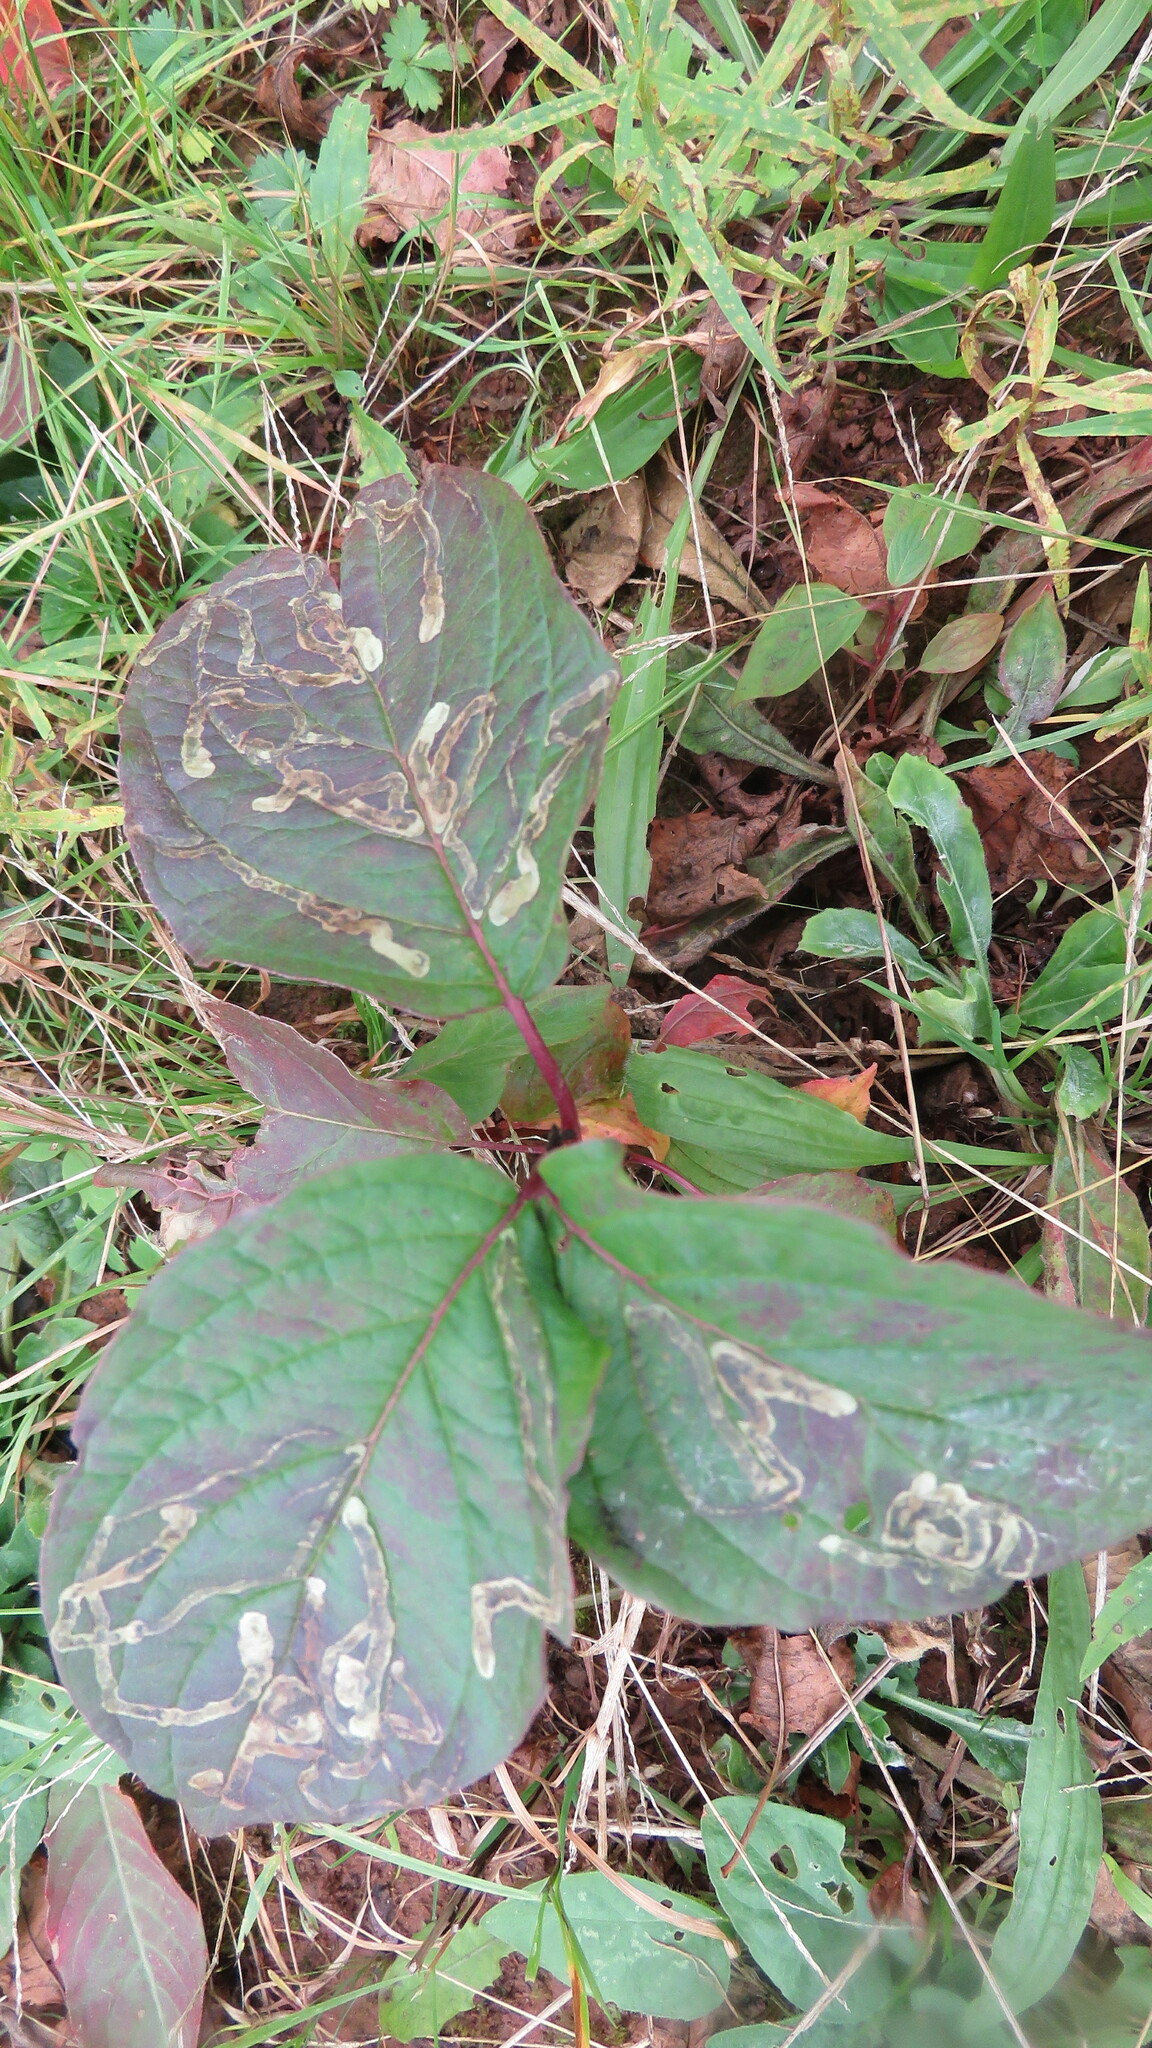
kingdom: Animalia
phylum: Arthropoda
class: Insecta
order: Diptera
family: Agromyzidae
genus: Phytomyza
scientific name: Phytomyza agromyzina
